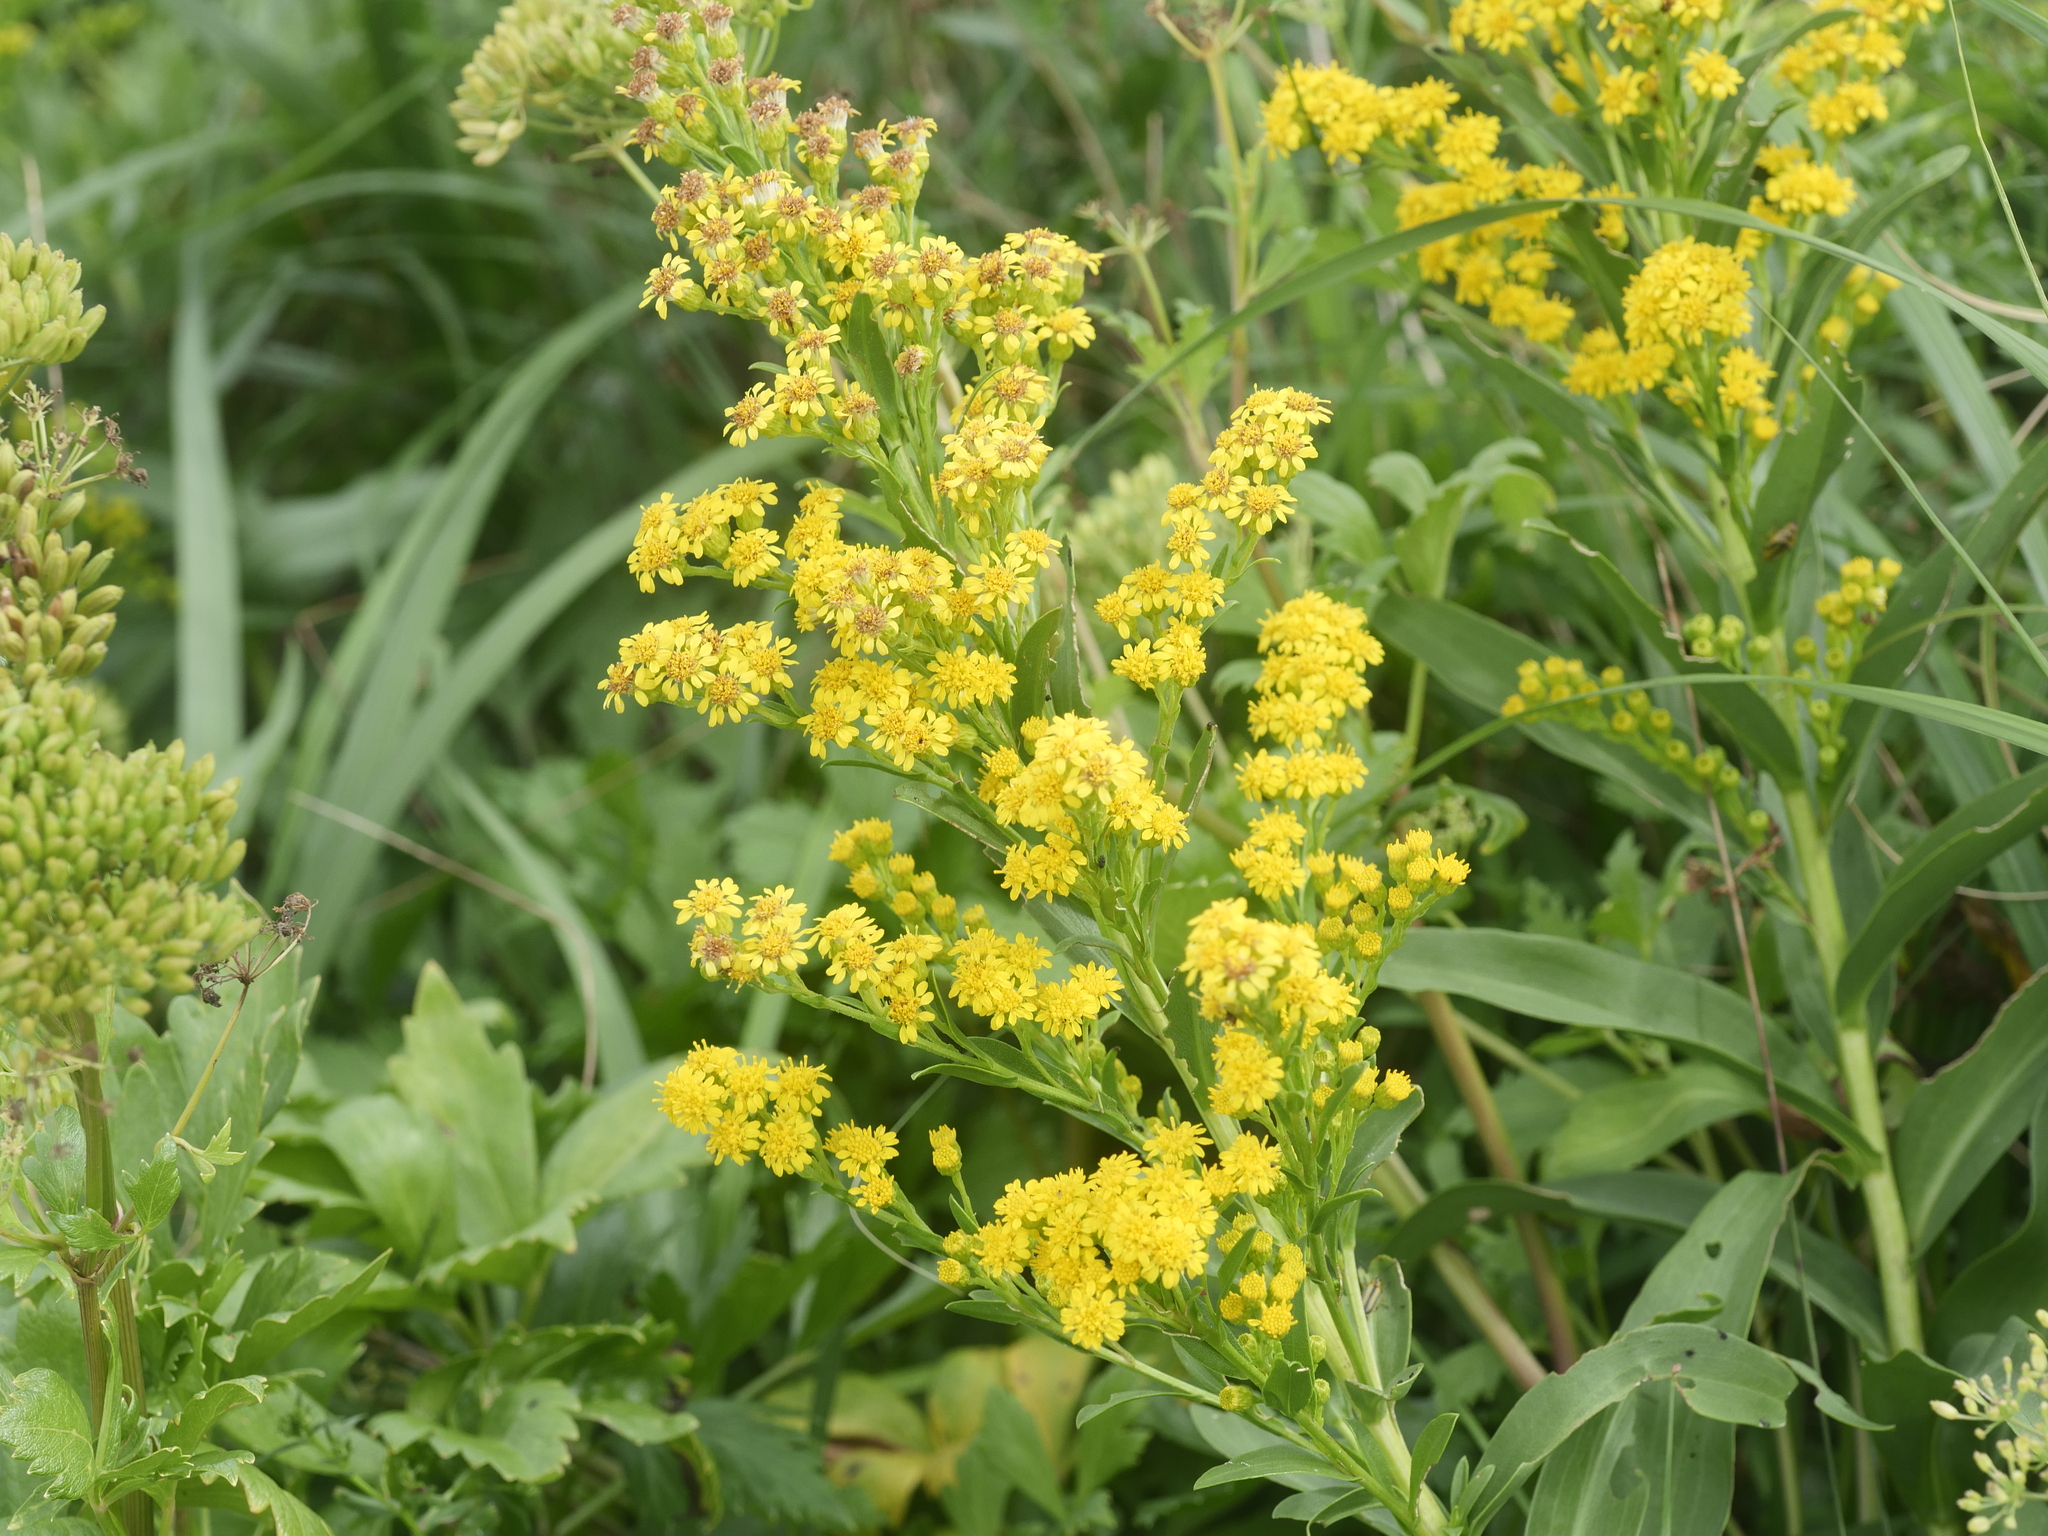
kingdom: Plantae
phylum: Tracheophyta
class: Magnoliopsida
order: Asterales
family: Asteraceae
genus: Solidago
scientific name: Solidago sempervirens
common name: Salt-marsh goldenrod
